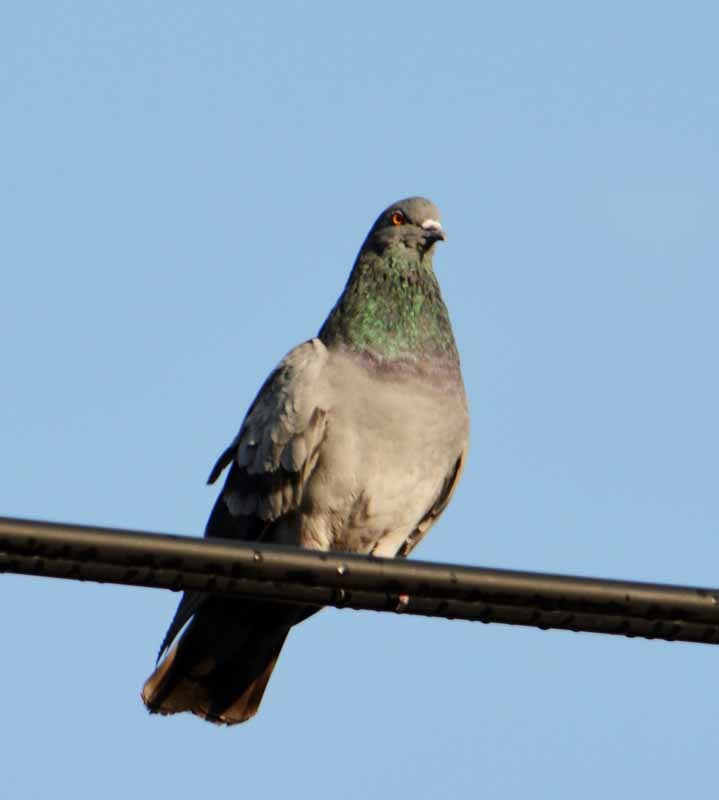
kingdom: Animalia
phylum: Chordata
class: Aves
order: Columbiformes
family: Columbidae
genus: Columba
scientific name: Columba livia
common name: Rock pigeon
